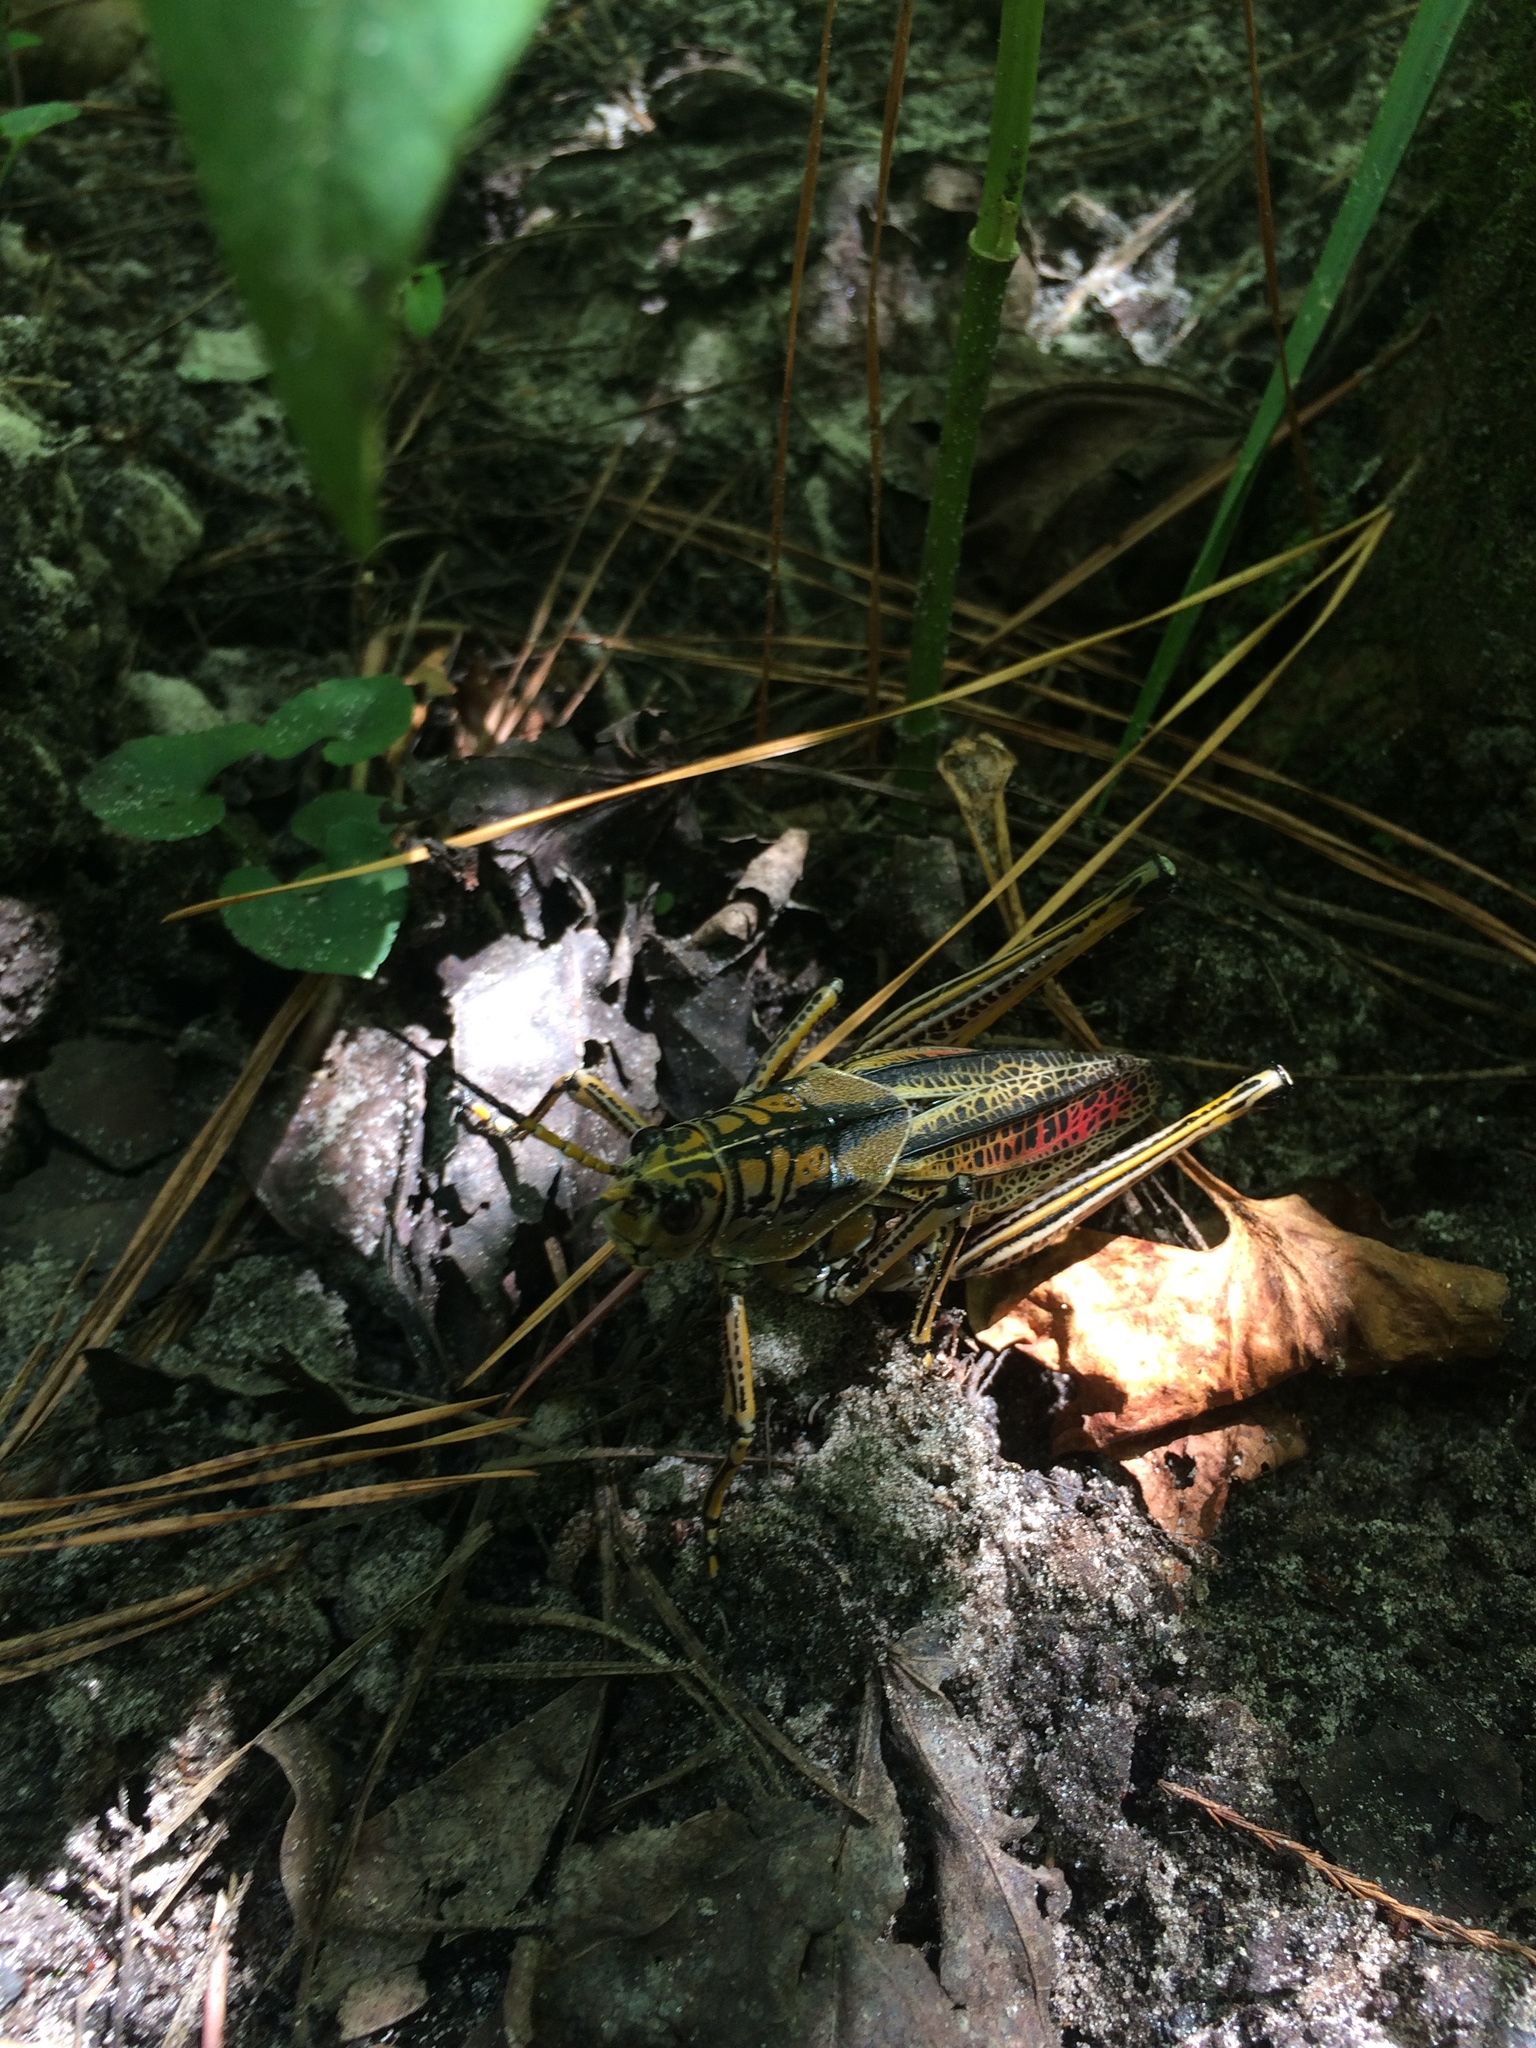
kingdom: Animalia
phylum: Arthropoda
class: Insecta
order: Orthoptera
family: Romaleidae
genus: Romalea
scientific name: Romalea microptera
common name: Eastern lubber grasshopper
